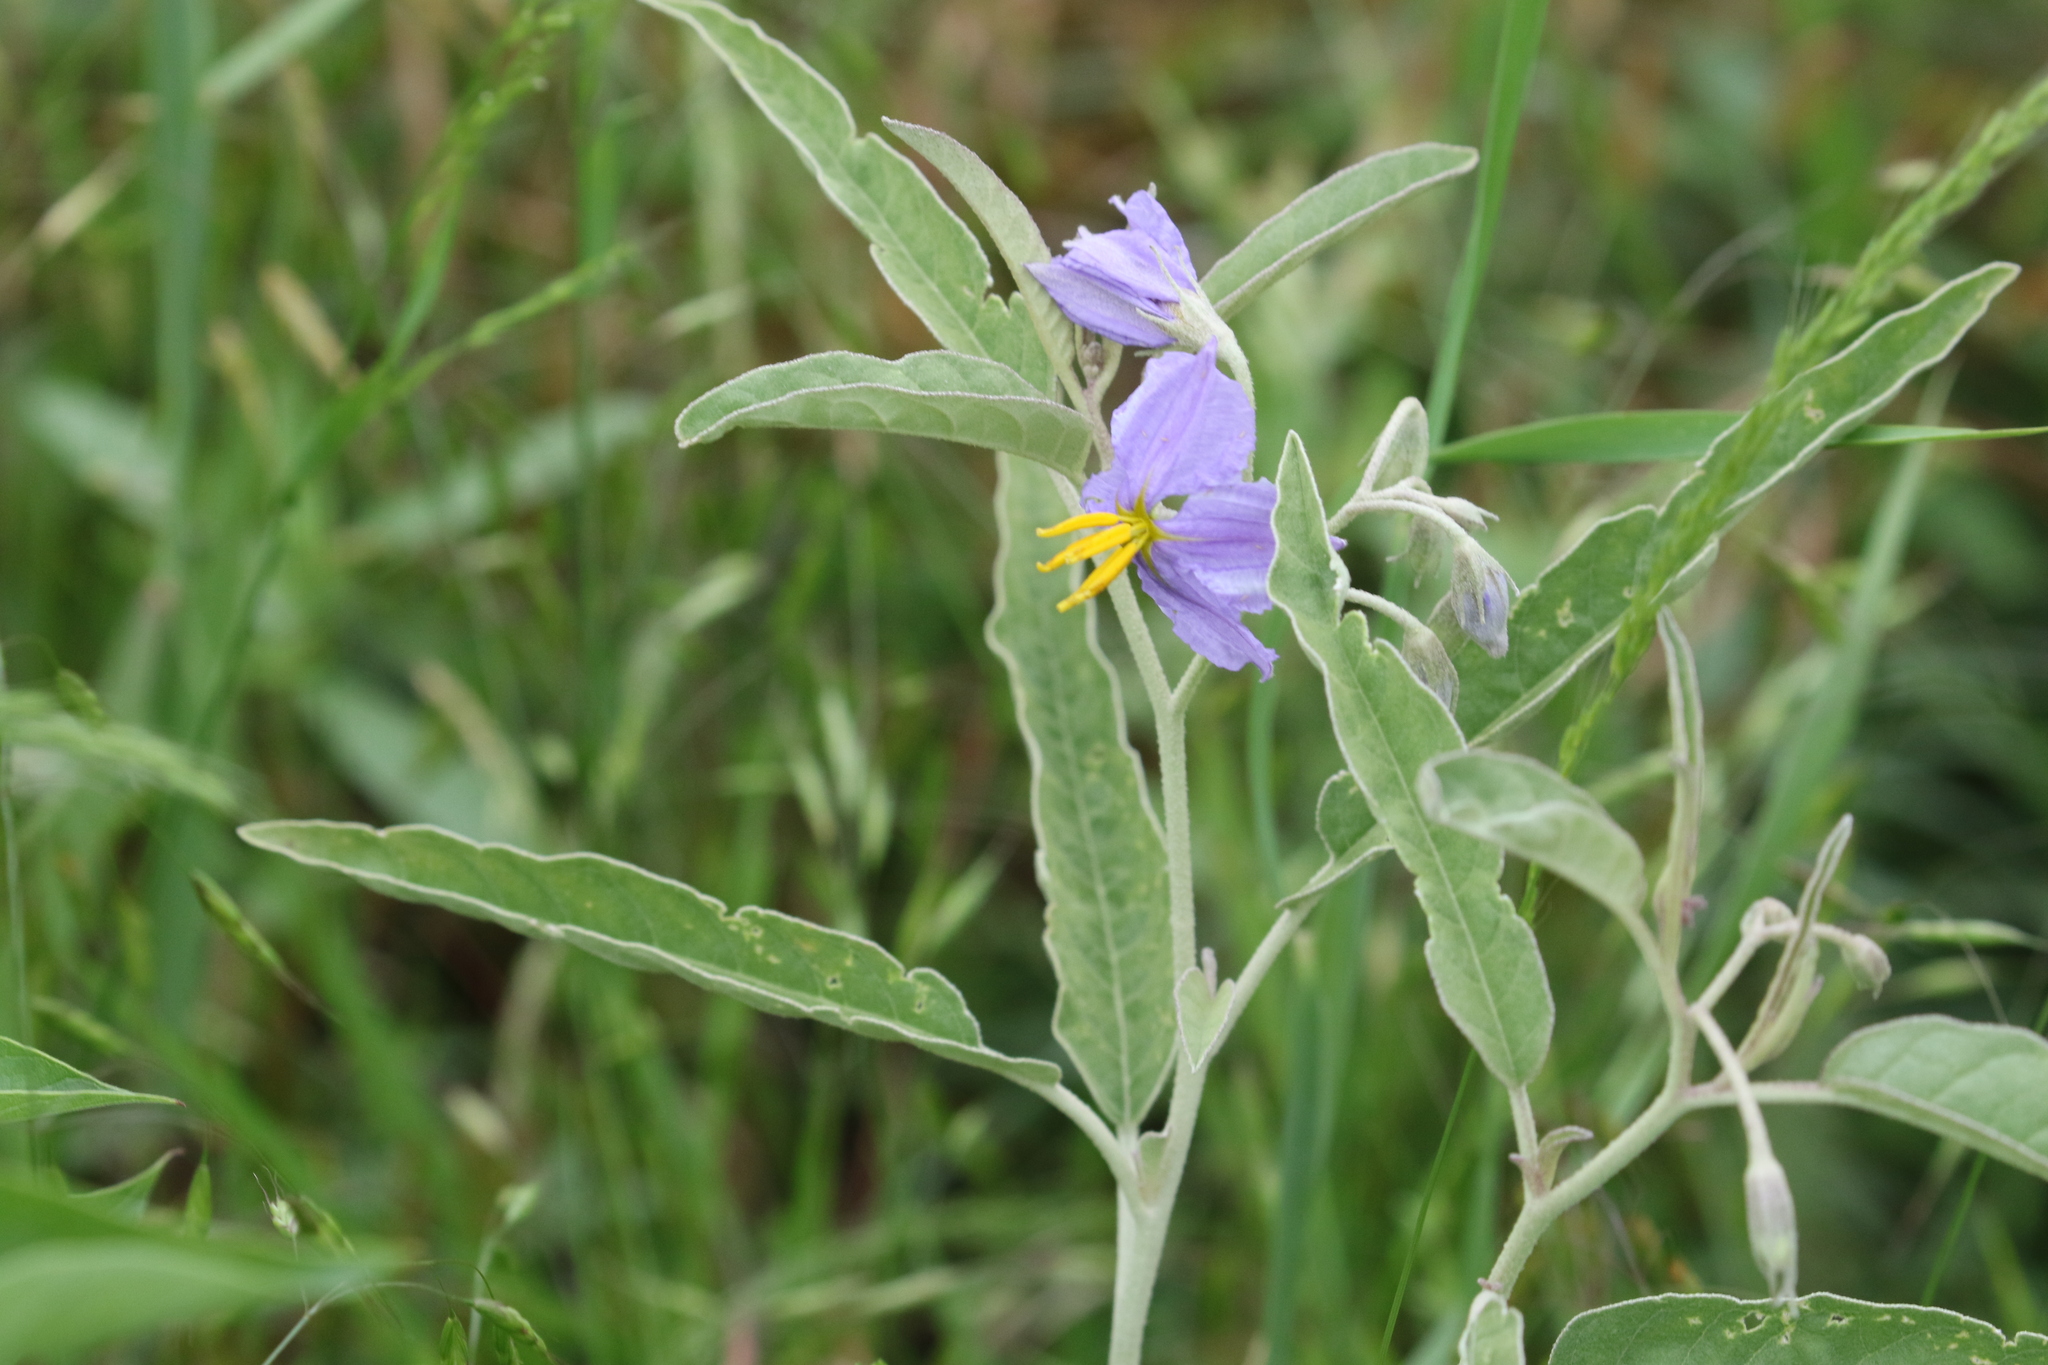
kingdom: Plantae
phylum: Tracheophyta
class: Magnoliopsida
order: Solanales
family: Solanaceae
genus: Solanum
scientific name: Solanum elaeagnifolium
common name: Silverleaf nightshade
